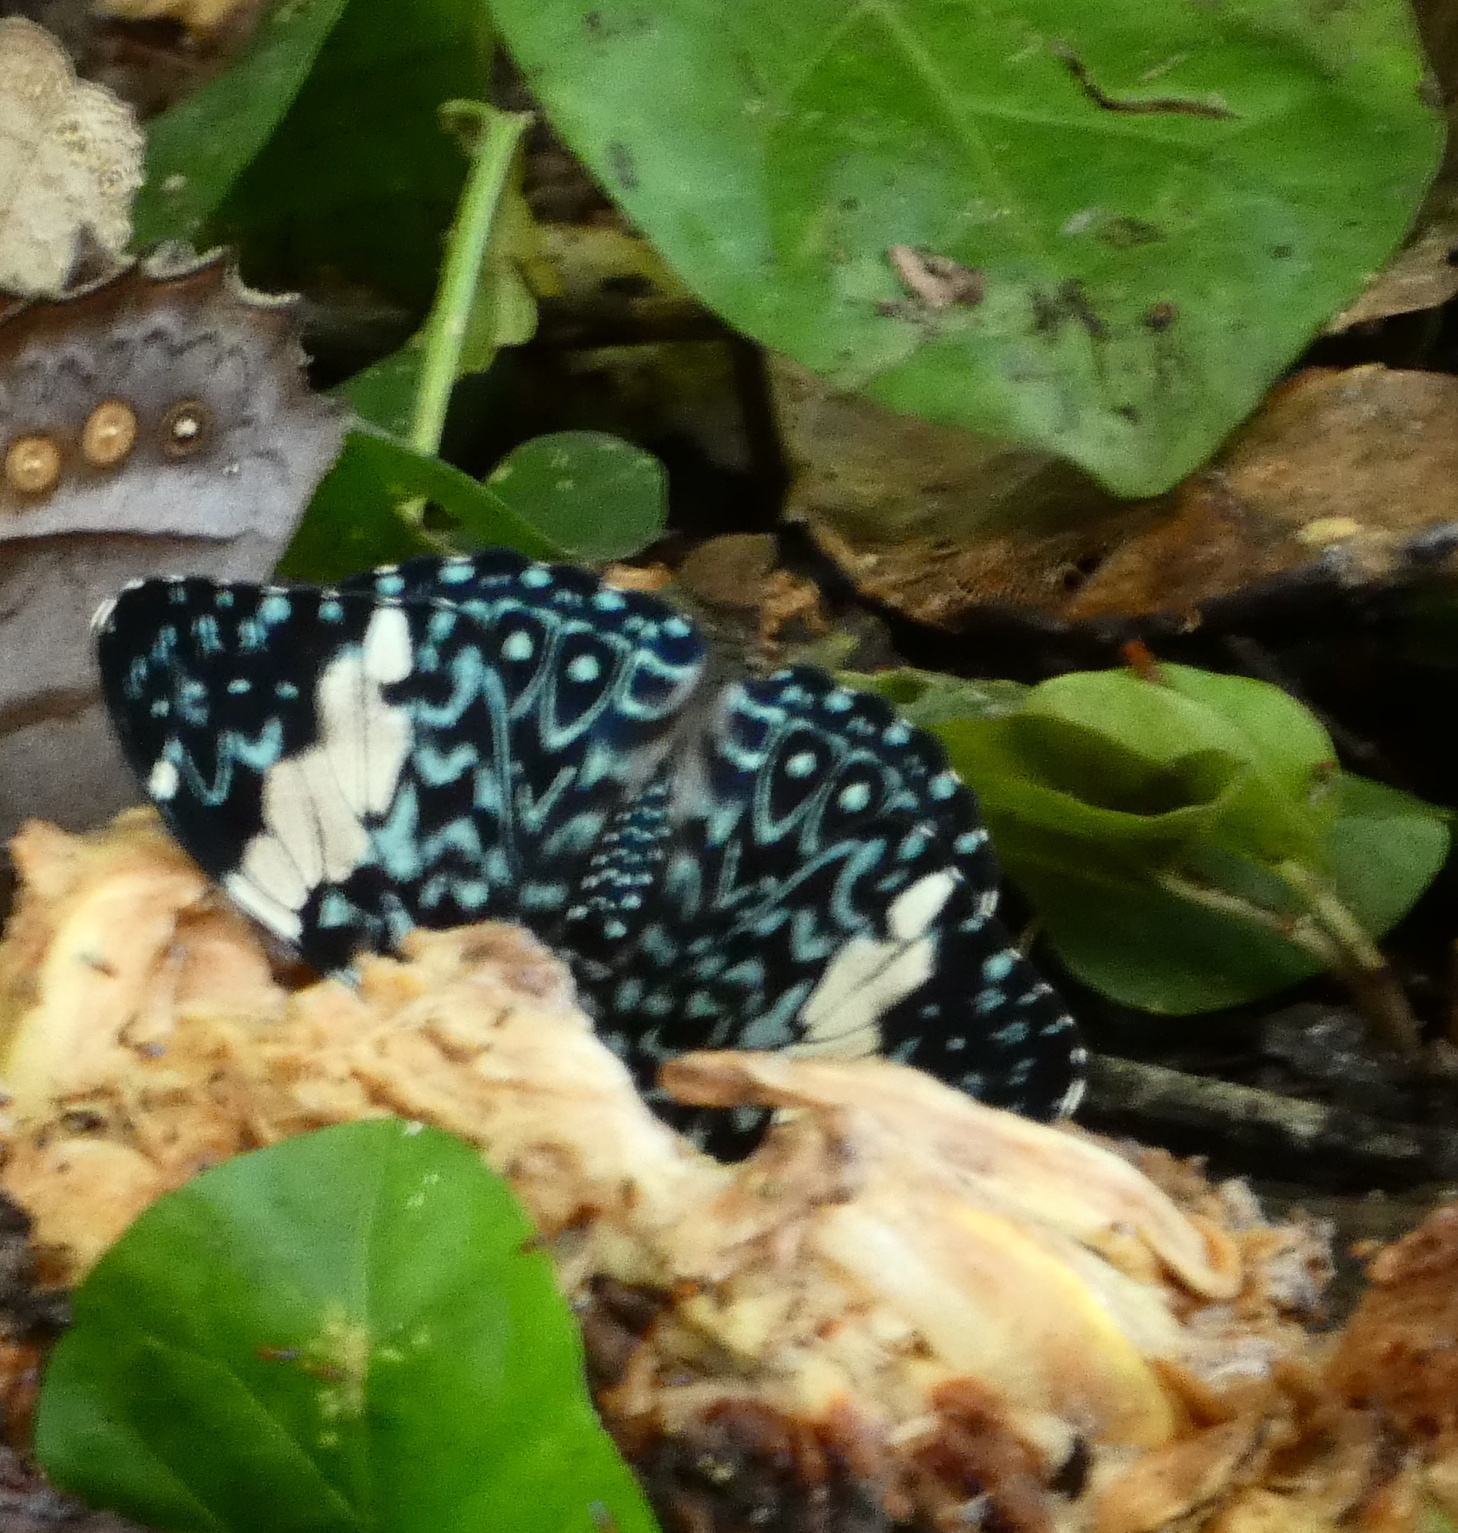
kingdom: Animalia
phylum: Arthropoda
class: Insecta
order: Lepidoptera
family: Nymphalidae
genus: Hamadryas
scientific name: Hamadryas amphinome
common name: Red cracker
